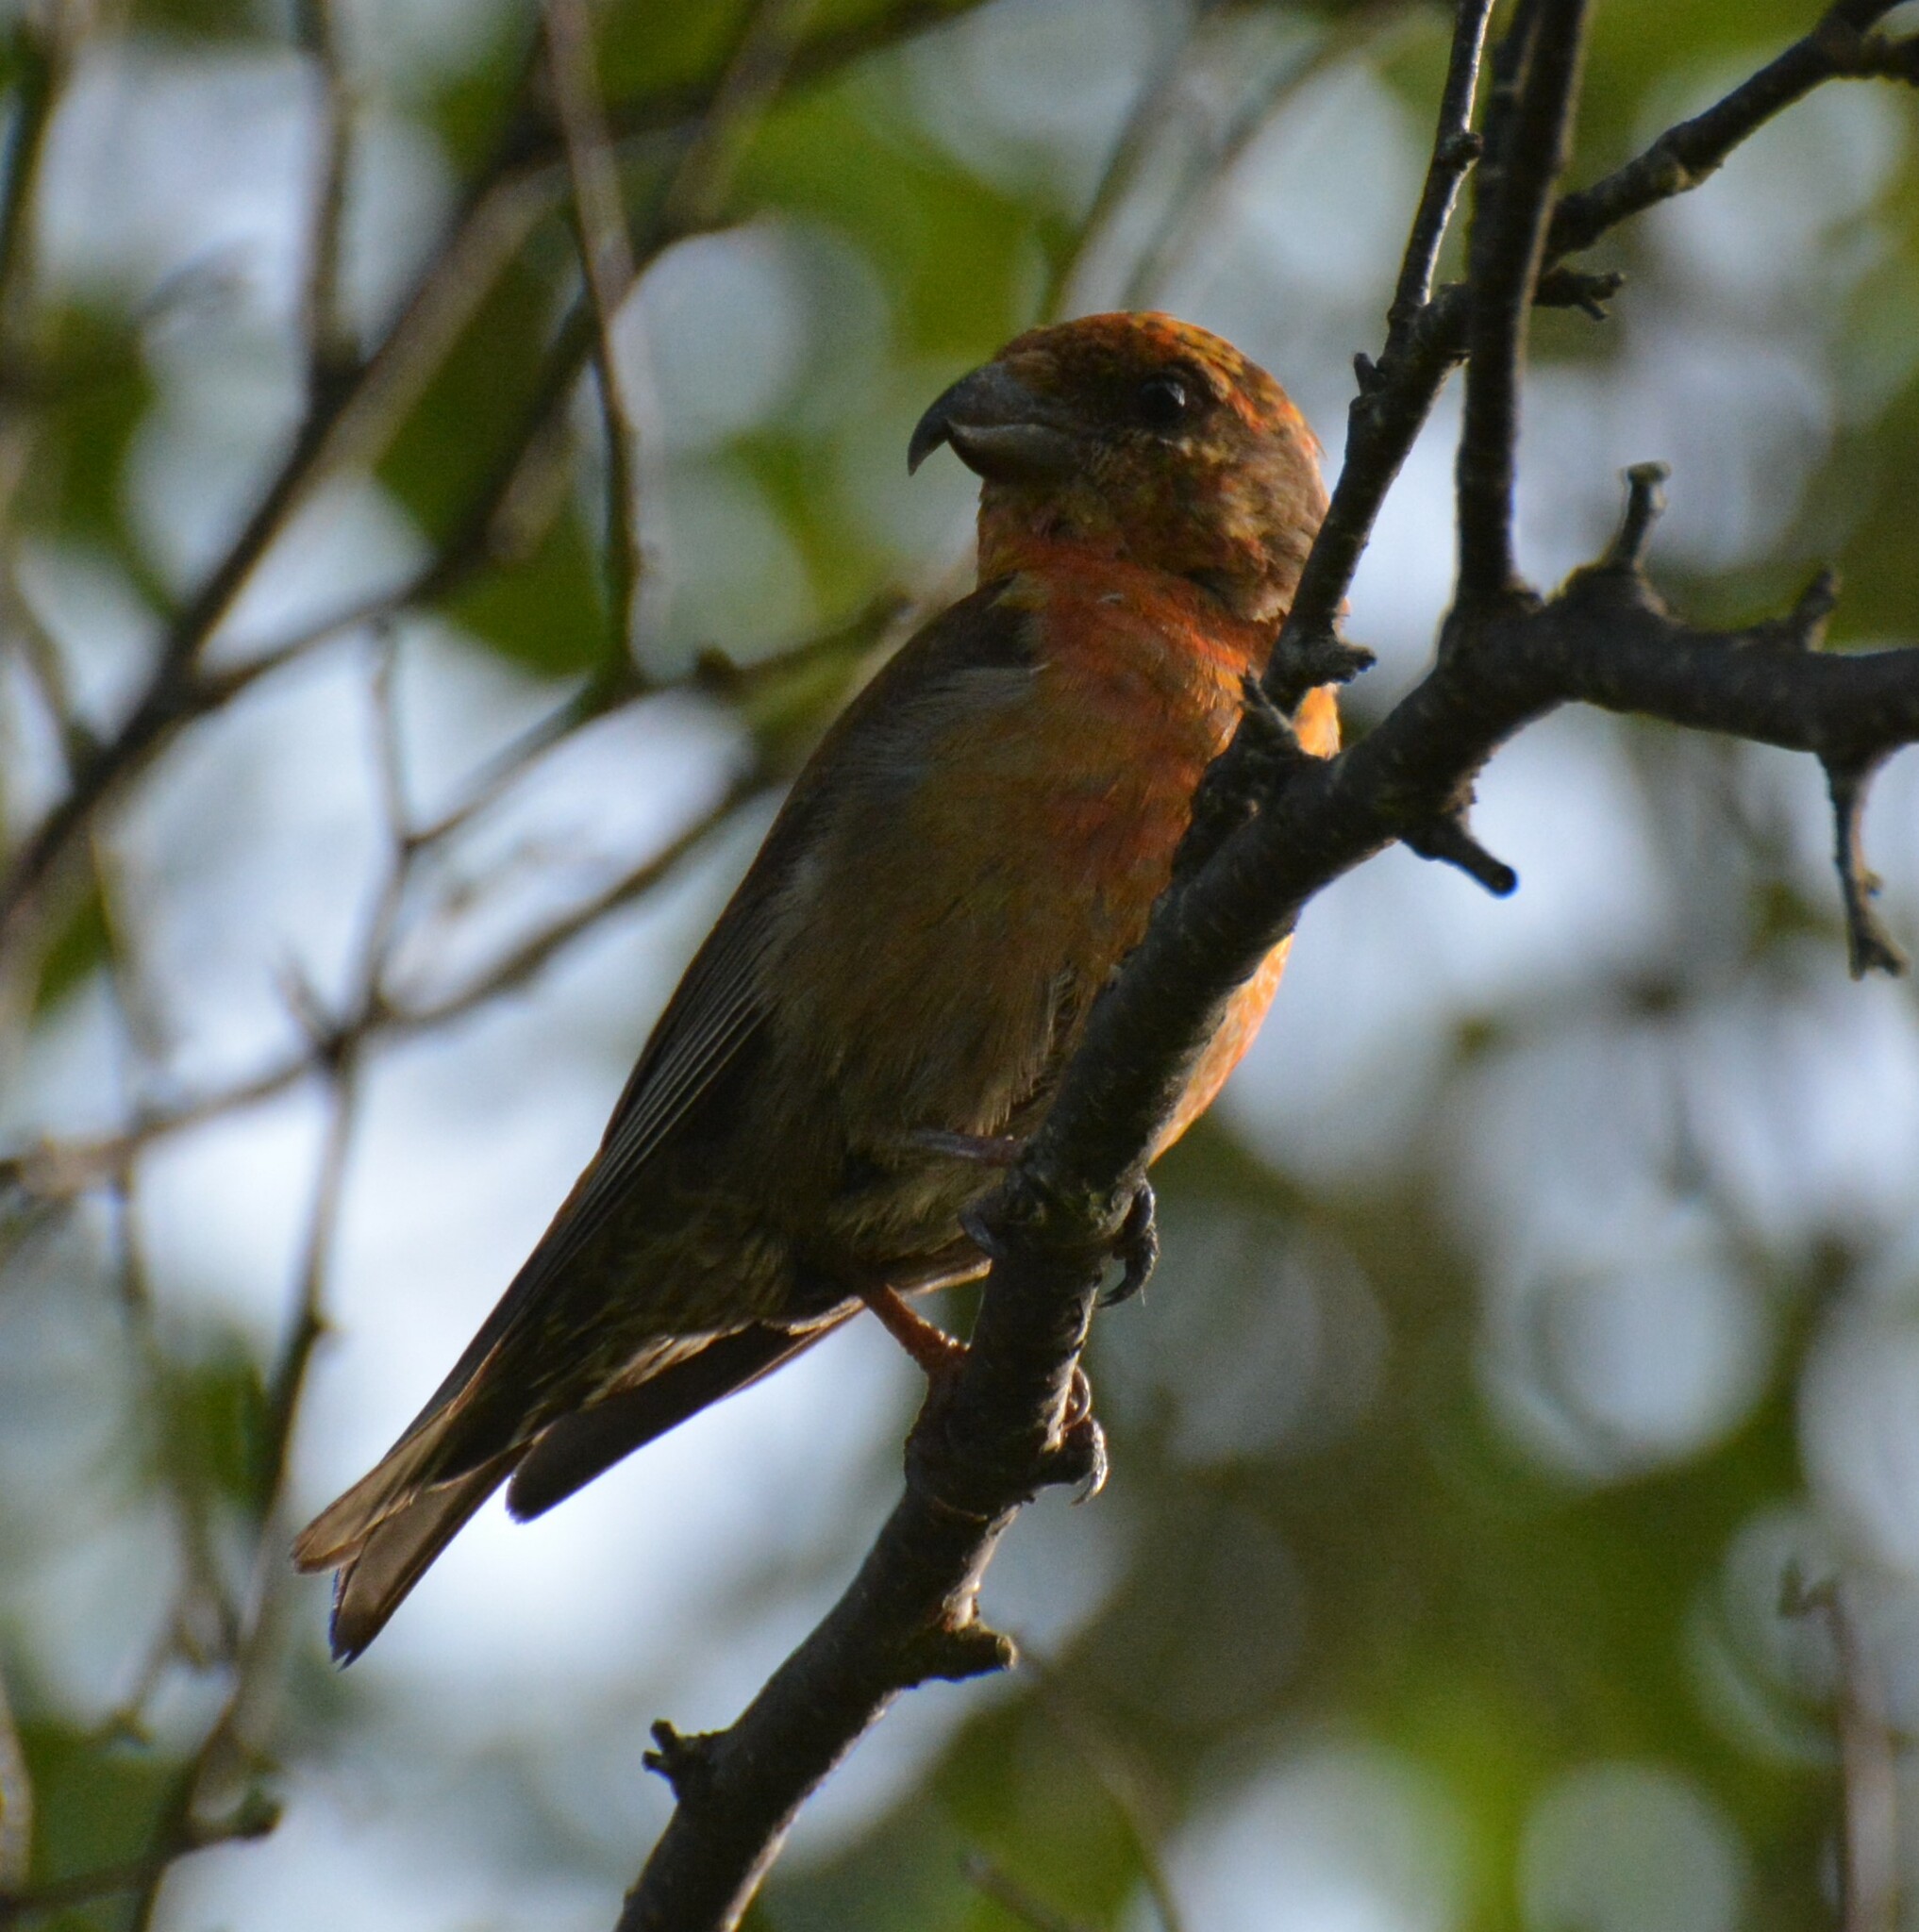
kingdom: Animalia
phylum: Chordata
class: Aves
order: Passeriformes
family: Fringillidae
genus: Loxia
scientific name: Loxia curvirostra
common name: Red crossbill
